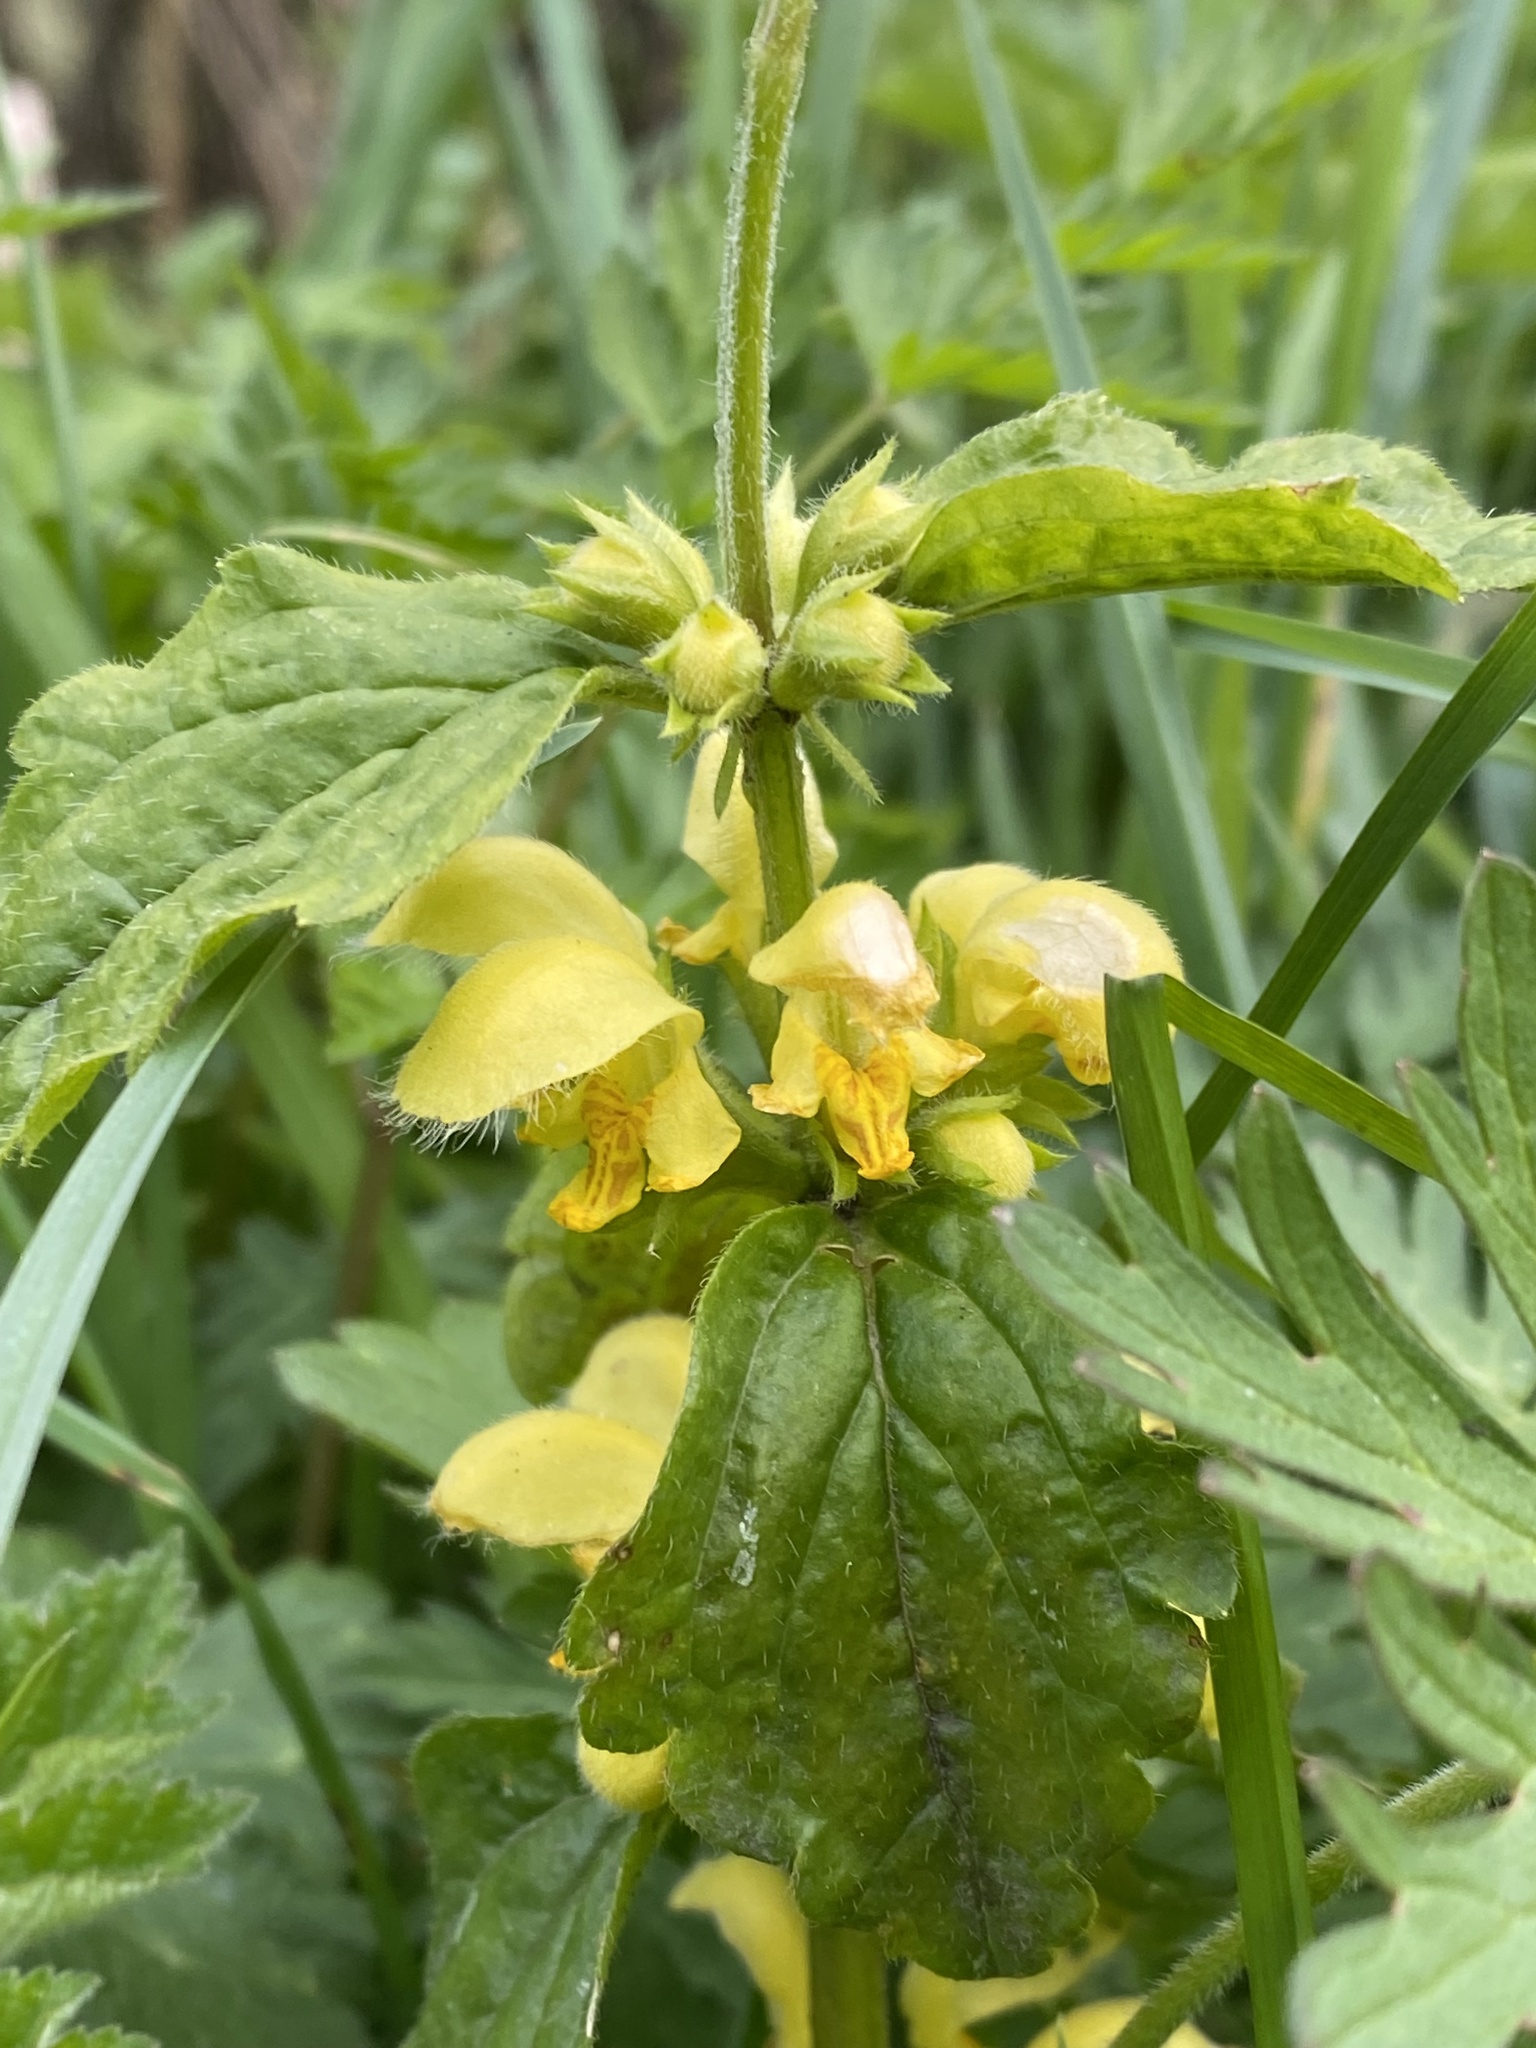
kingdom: Plantae
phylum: Tracheophyta
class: Magnoliopsida
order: Lamiales
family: Lamiaceae
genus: Lamium
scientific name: Lamium galeobdolon
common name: Yellow archangel
